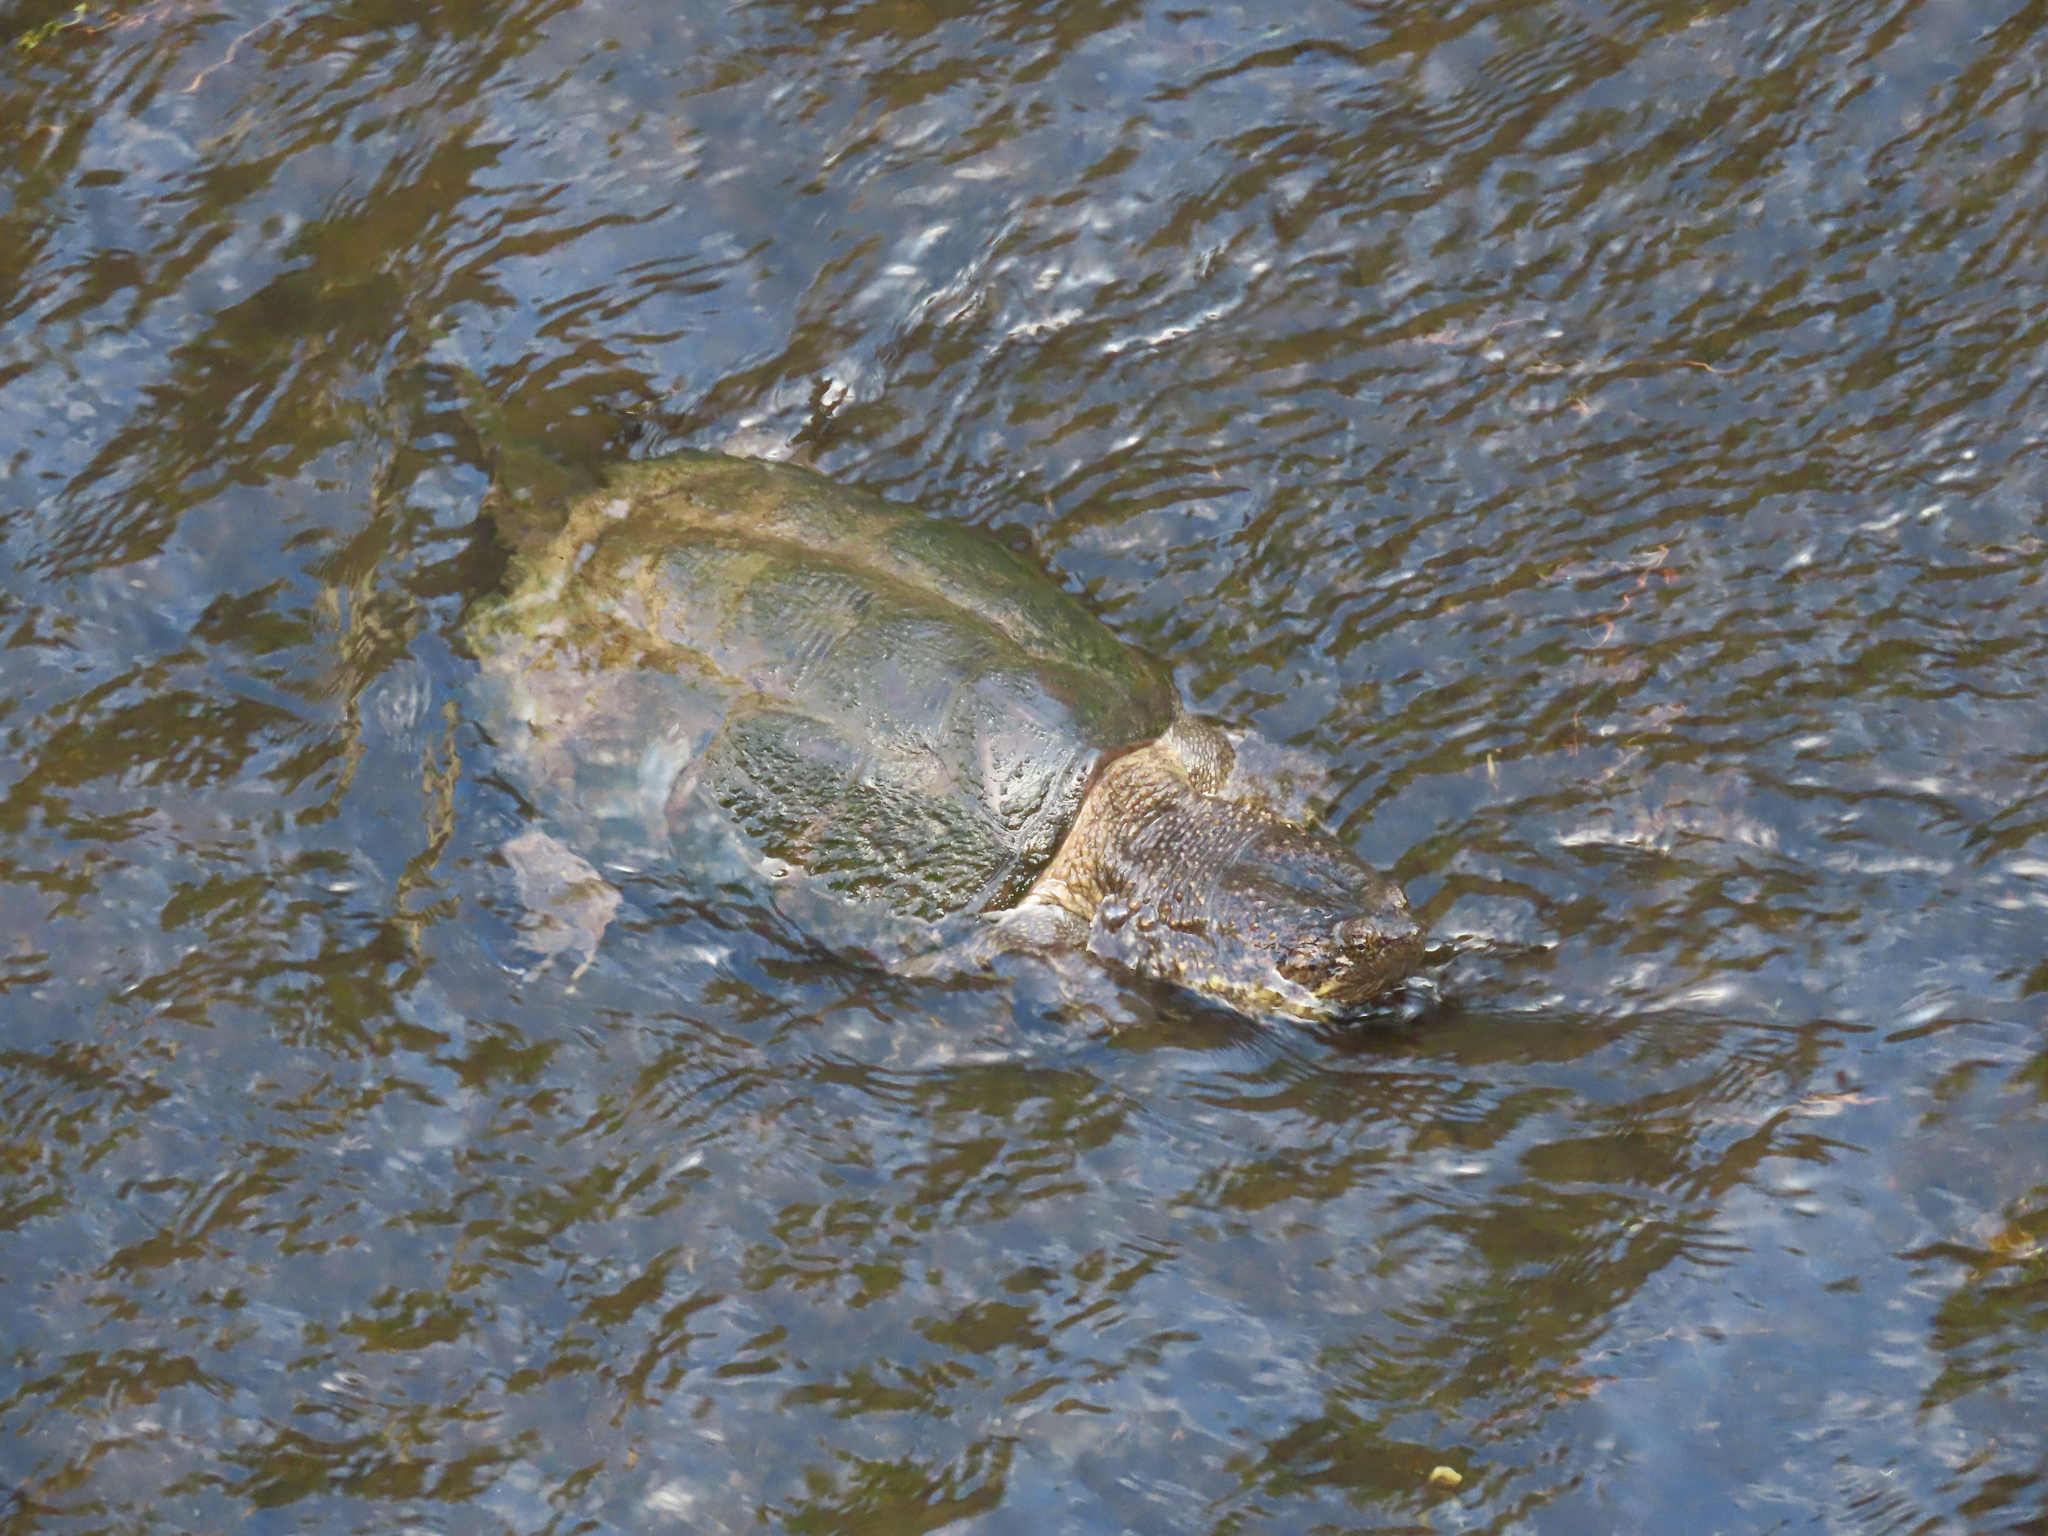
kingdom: Animalia
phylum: Chordata
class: Testudines
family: Chelydridae
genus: Chelydra
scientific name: Chelydra serpentina
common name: Common snapping turtle
